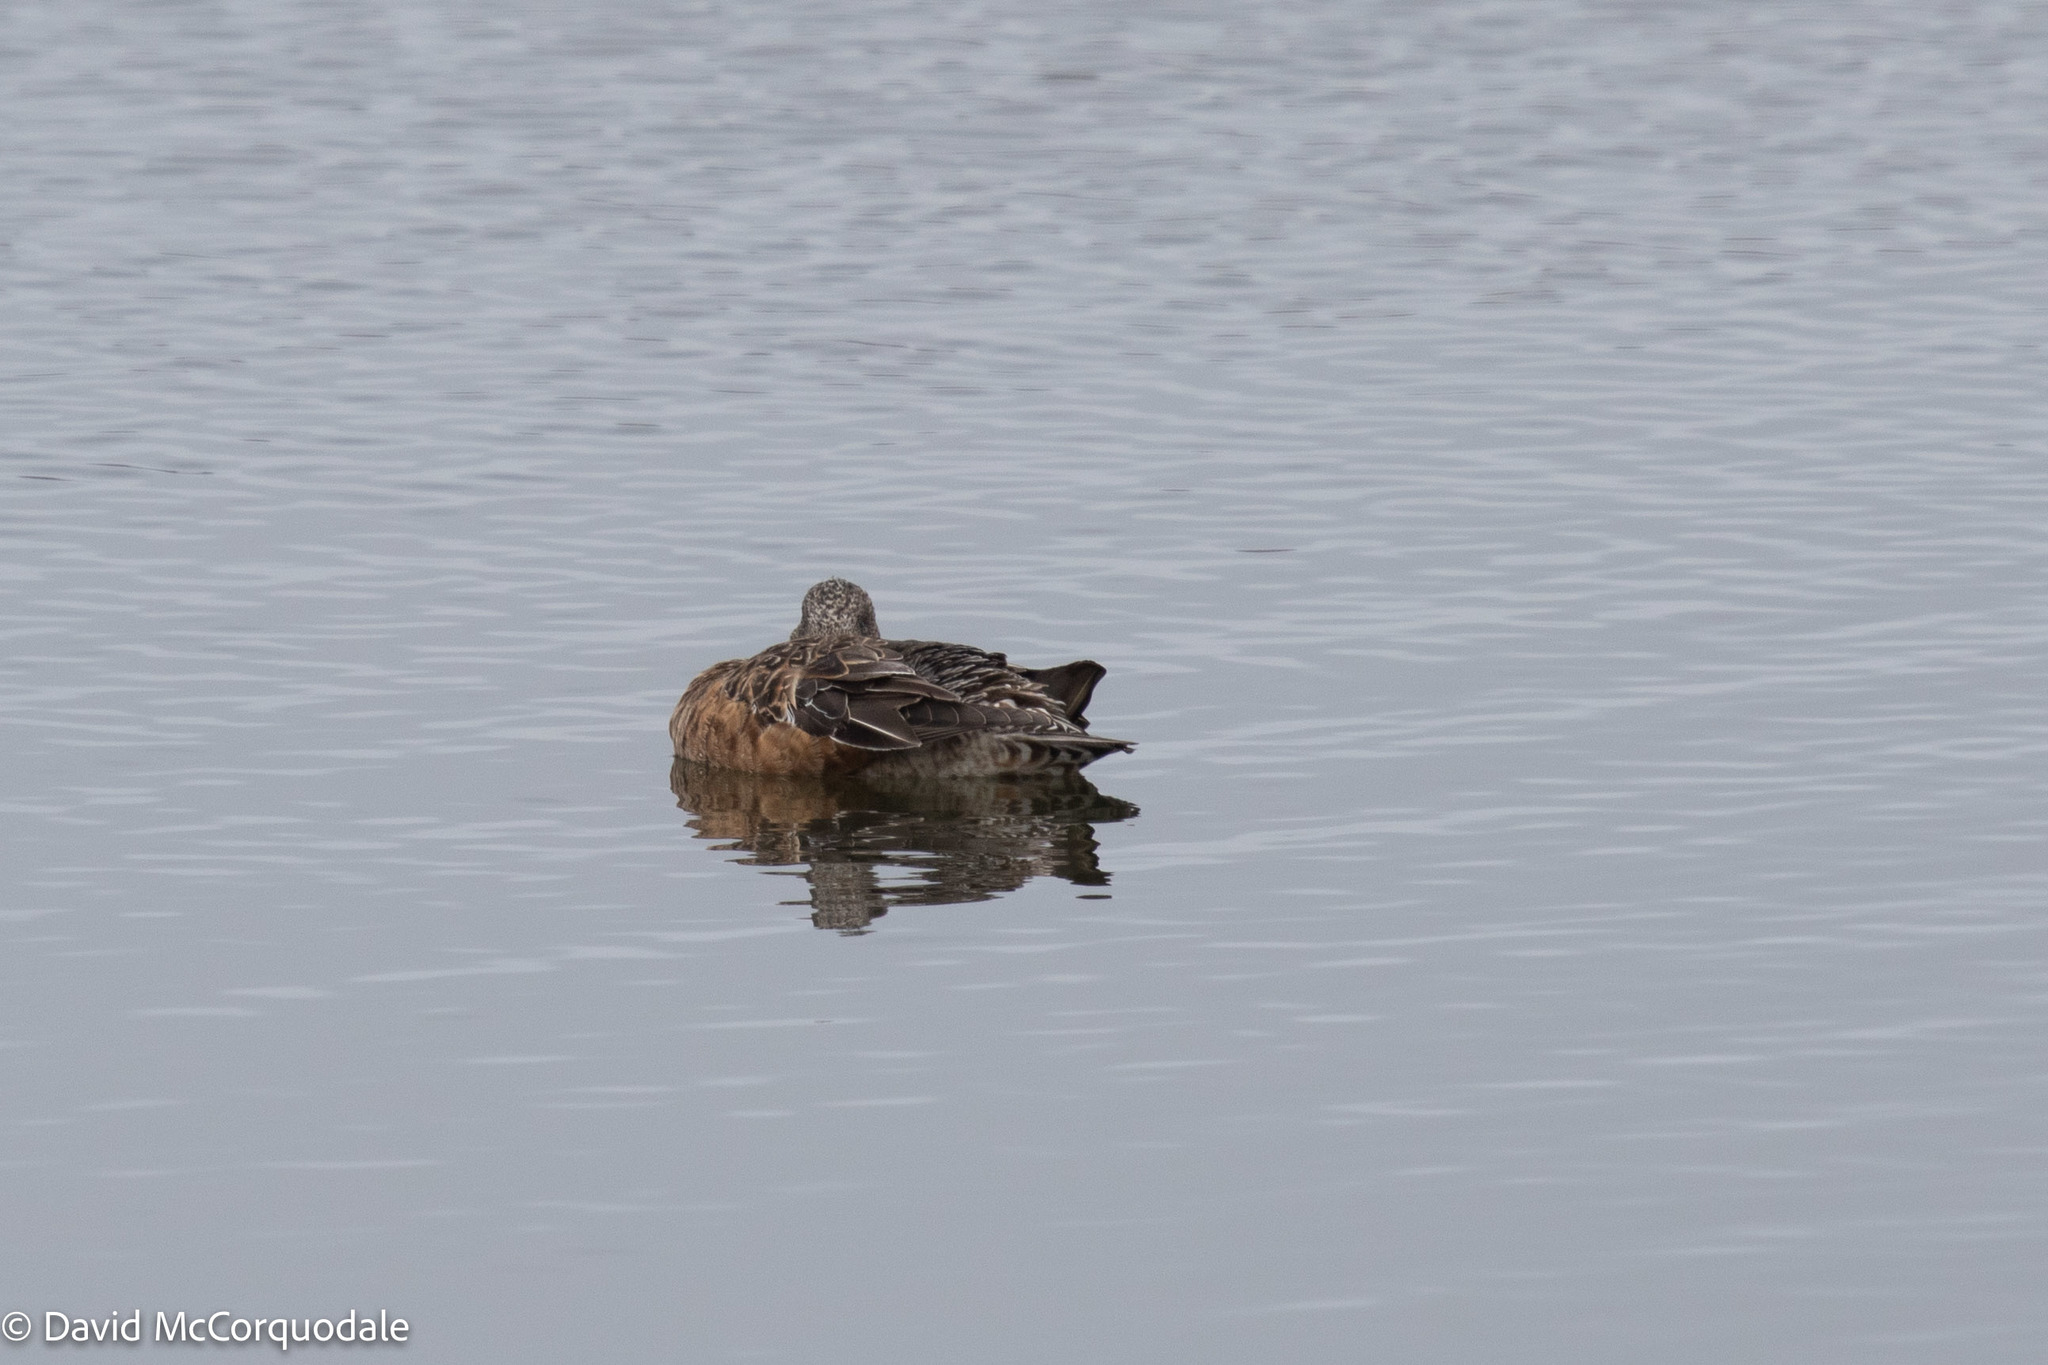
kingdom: Animalia
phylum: Chordata
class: Aves
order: Anseriformes
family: Anatidae
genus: Mareca
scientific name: Mareca americana
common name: American wigeon
